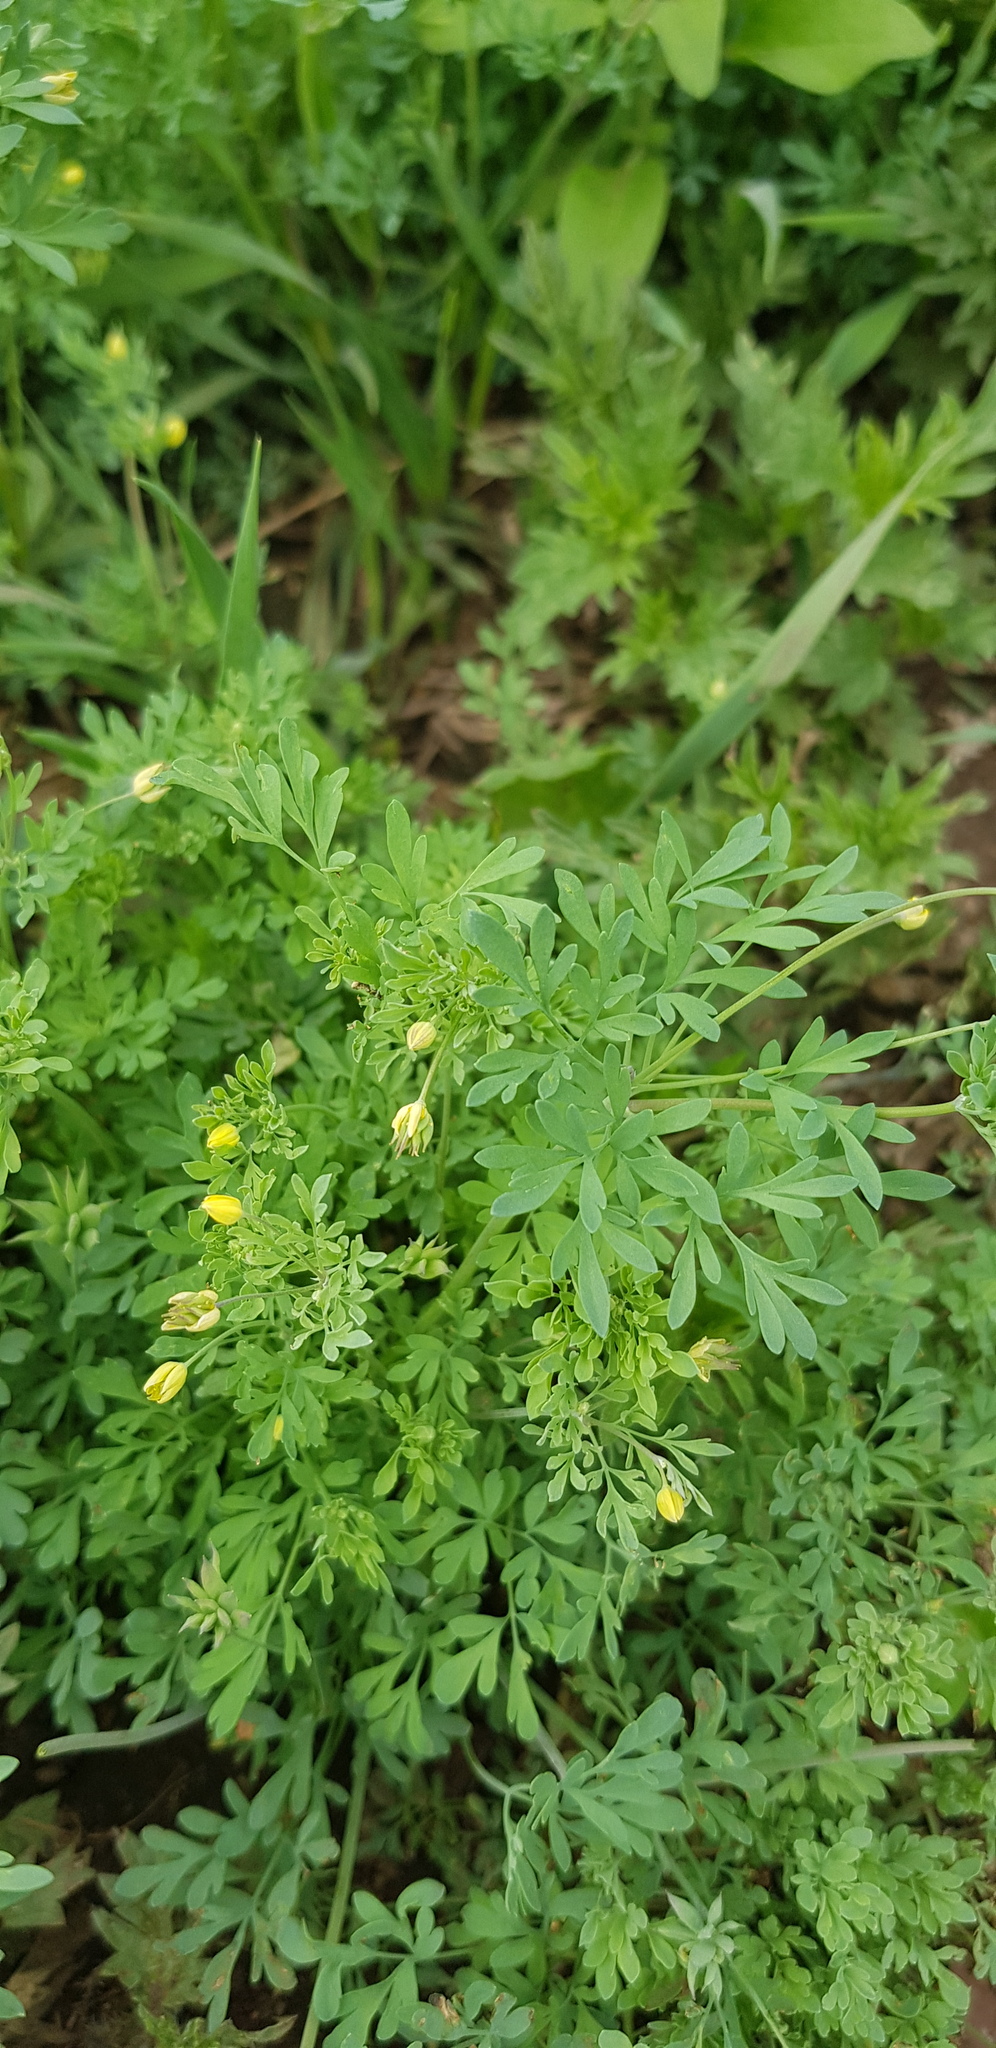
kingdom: Plantae
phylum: Tracheophyta
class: Magnoliopsida
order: Ranunculales
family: Ranunculaceae
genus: Leptopyrum
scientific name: Leptopyrum fumarioides
